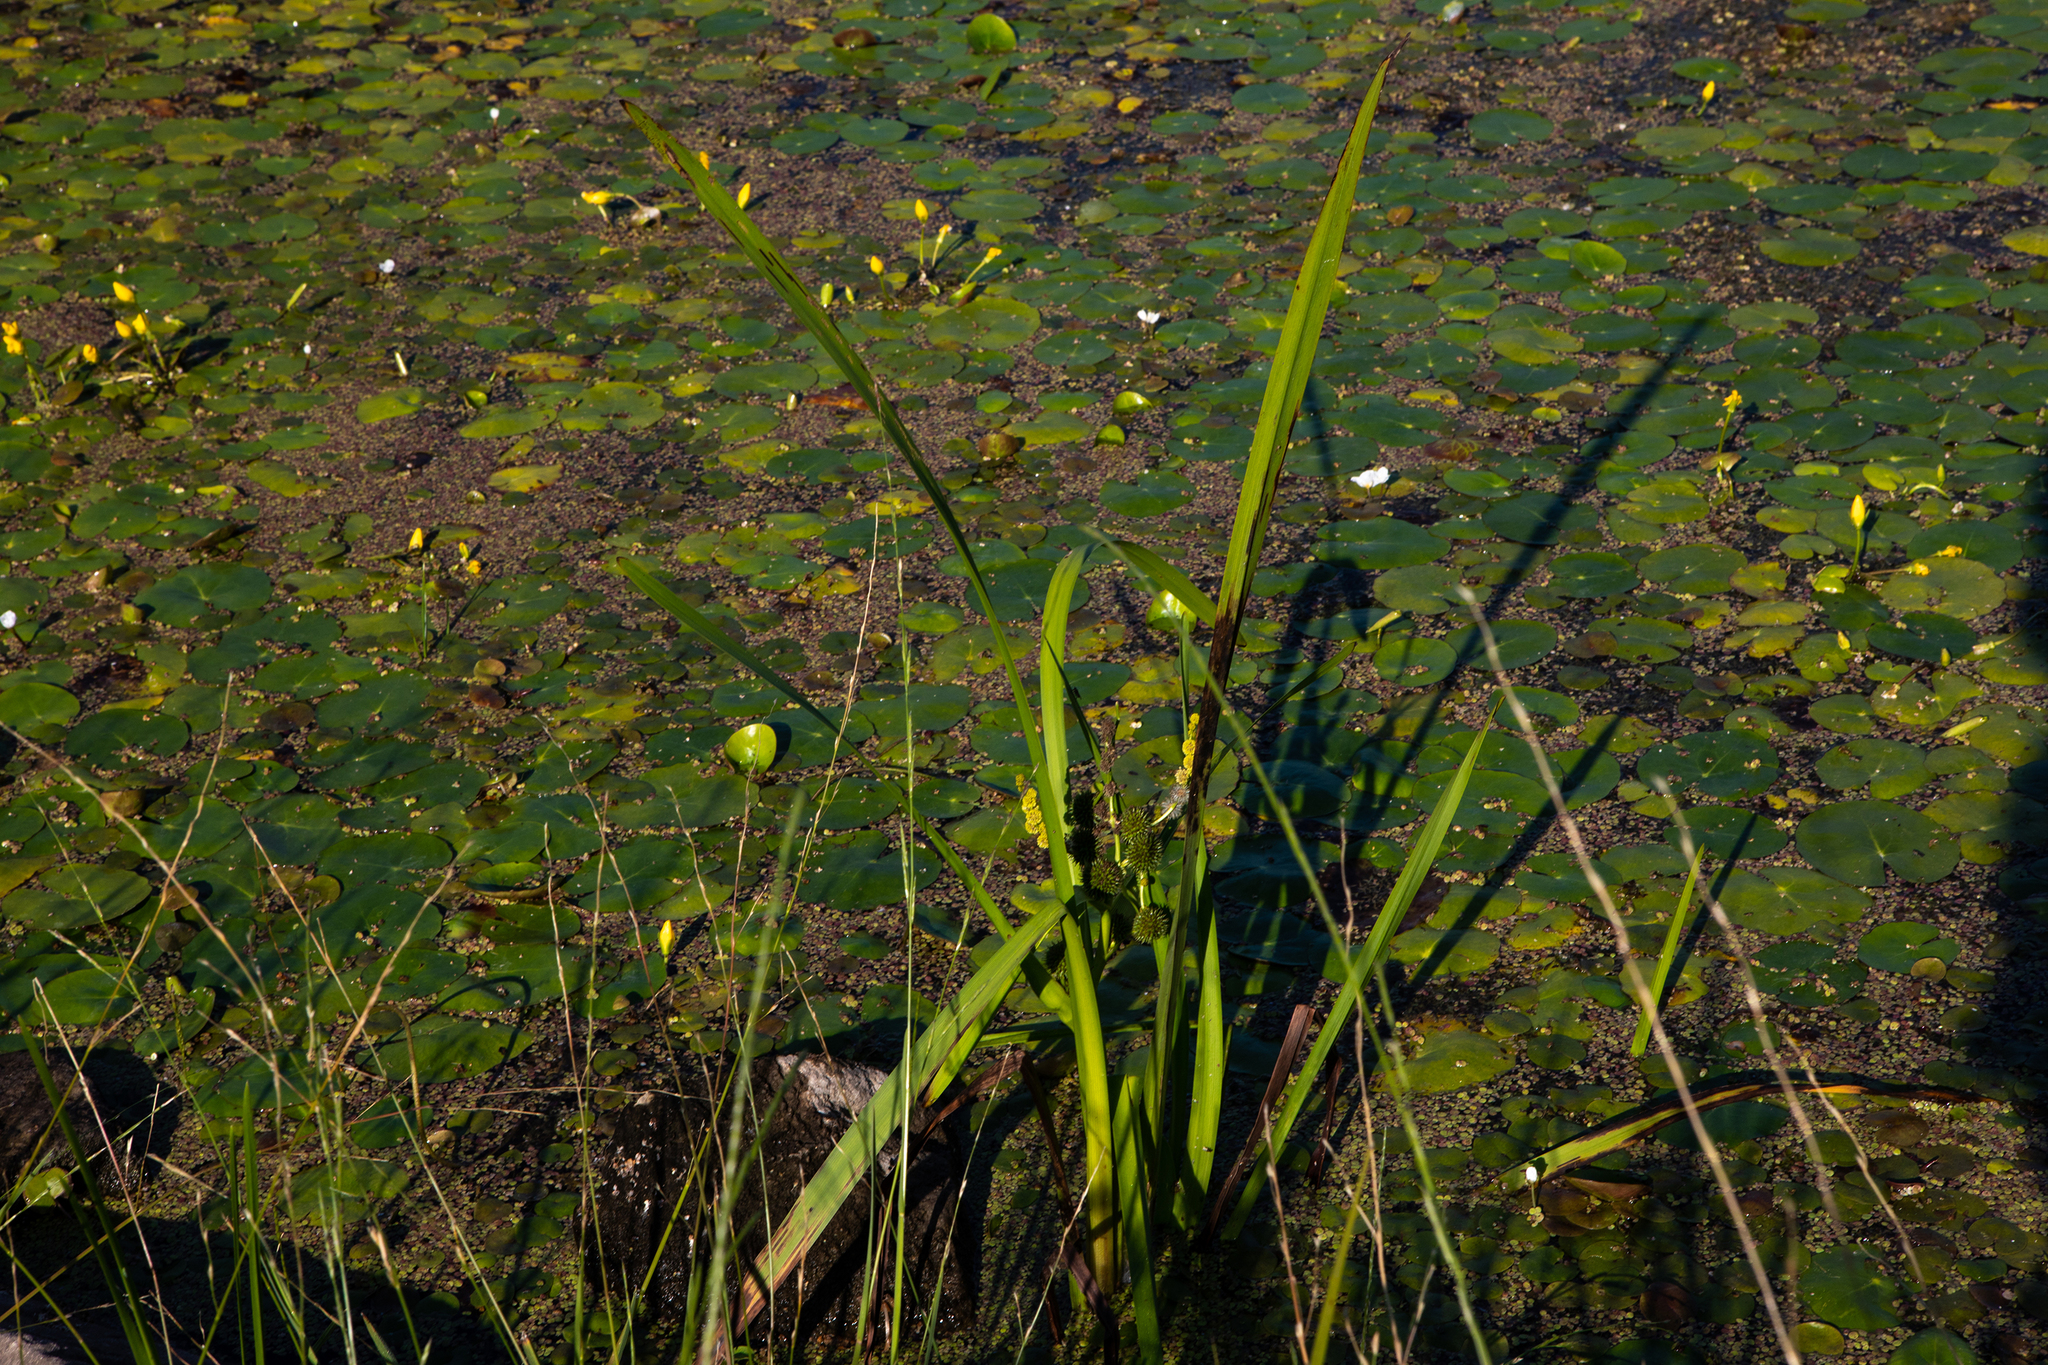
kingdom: Plantae
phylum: Tracheophyta
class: Liliopsida
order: Poales
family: Typhaceae
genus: Sparganium
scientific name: Sparganium erectum
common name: Branched bur-reed
